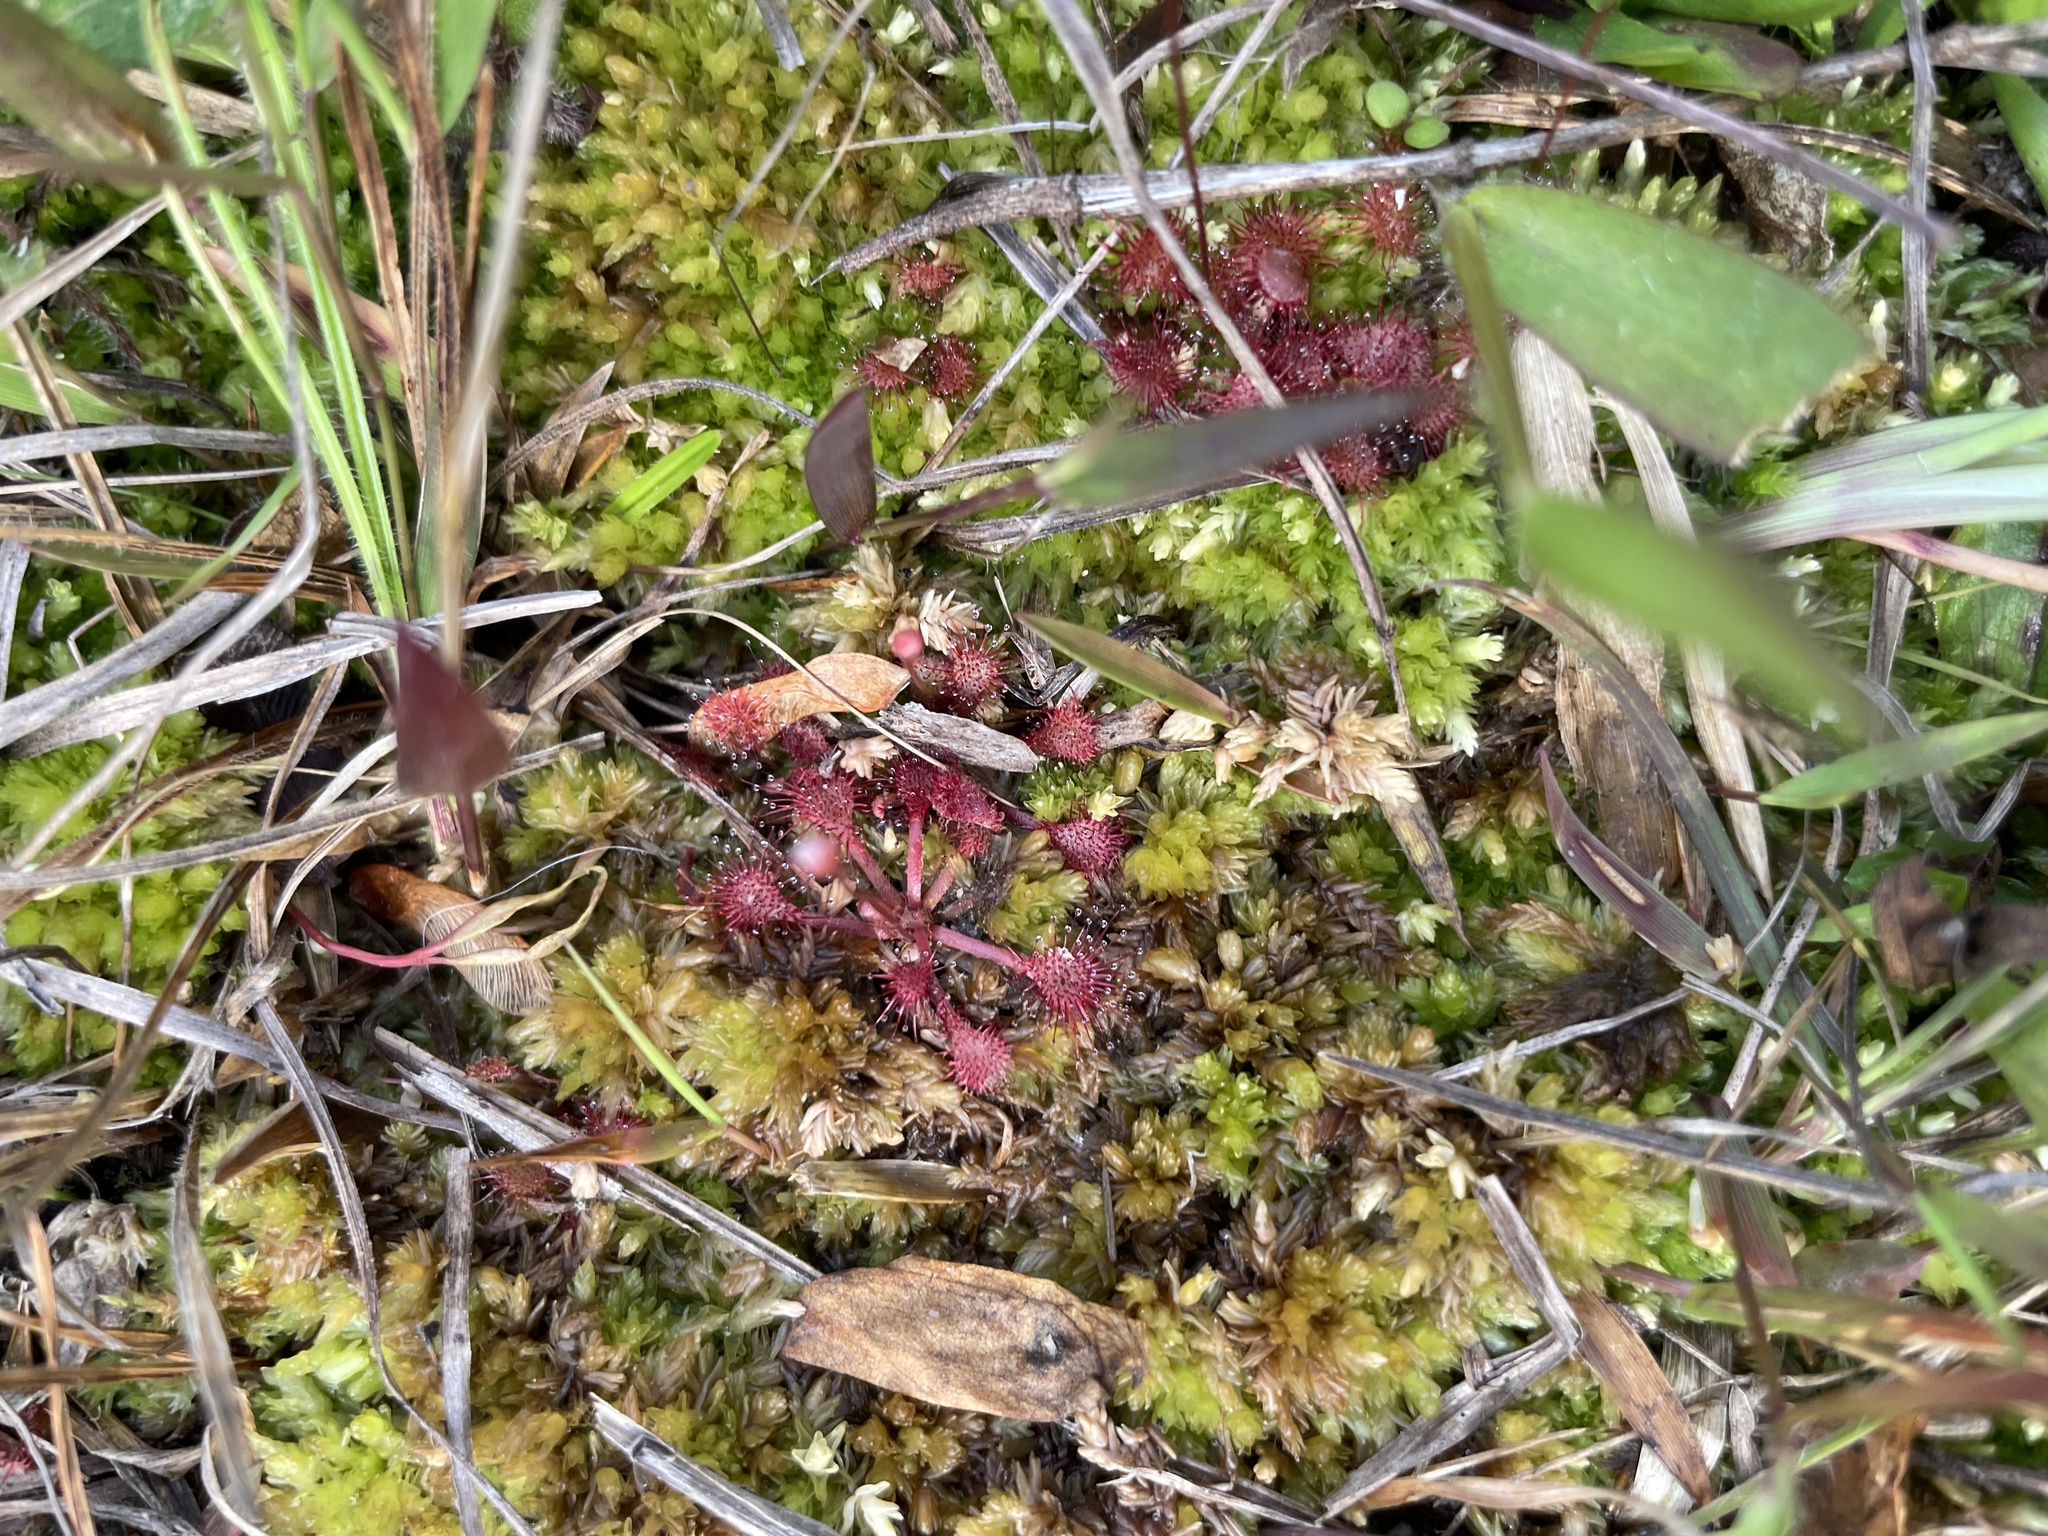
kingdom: Plantae
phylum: Tracheophyta
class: Magnoliopsida
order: Caryophyllales
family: Droseraceae
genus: Drosera
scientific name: Drosera capillaris
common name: Pink sundew
